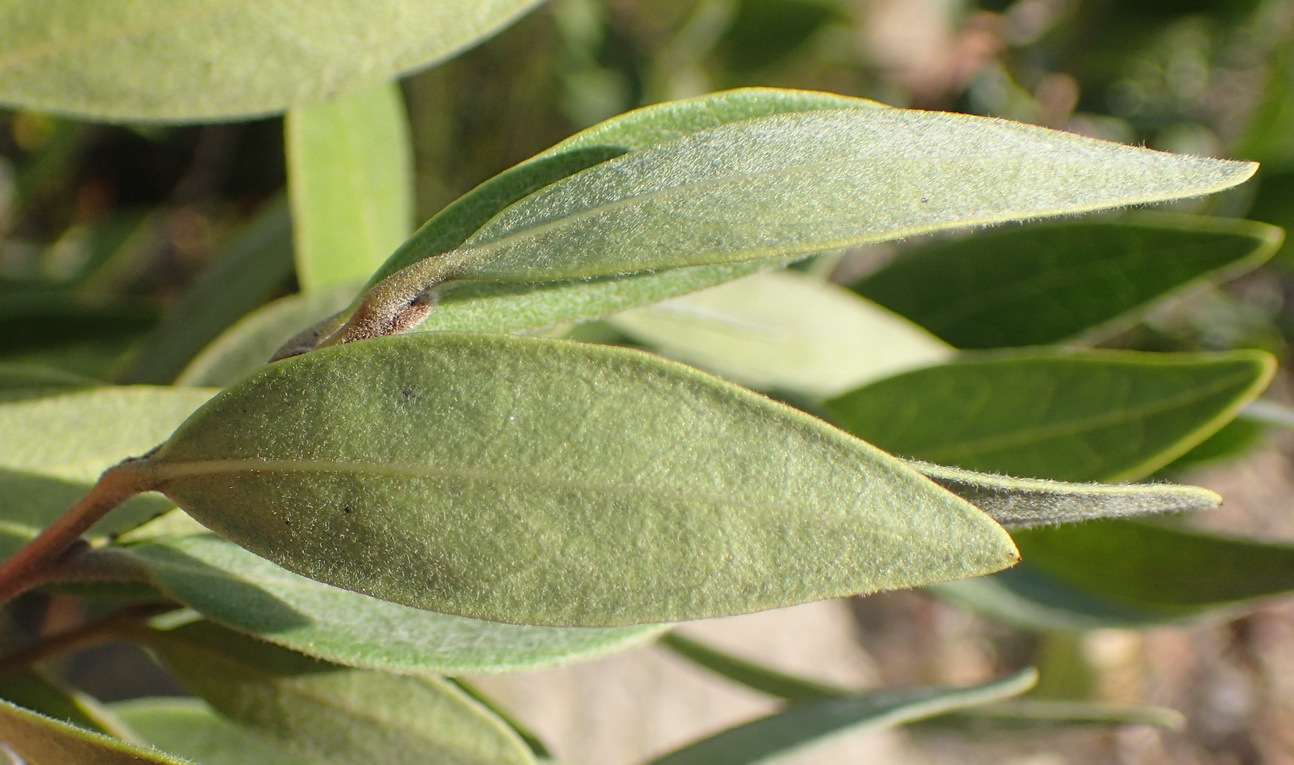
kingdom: Plantae
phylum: Tracheophyta
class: Magnoliopsida
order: Ericales
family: Ebenaceae
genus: Euclea
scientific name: Euclea polyandra
